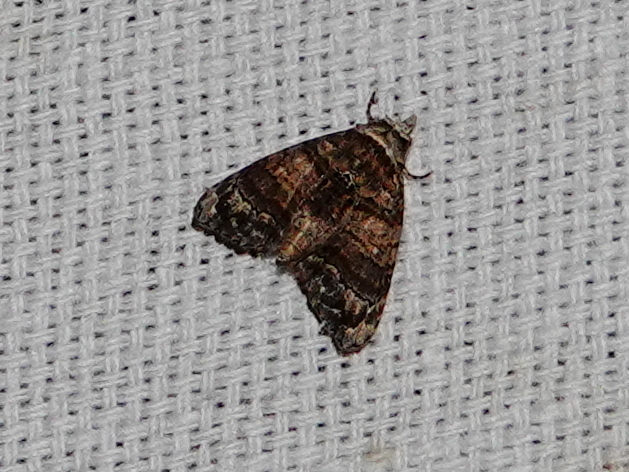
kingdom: Animalia
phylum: Arthropoda
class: Insecta
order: Lepidoptera
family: Euteliidae
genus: Chlumetia
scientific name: Chlumetia transversa
